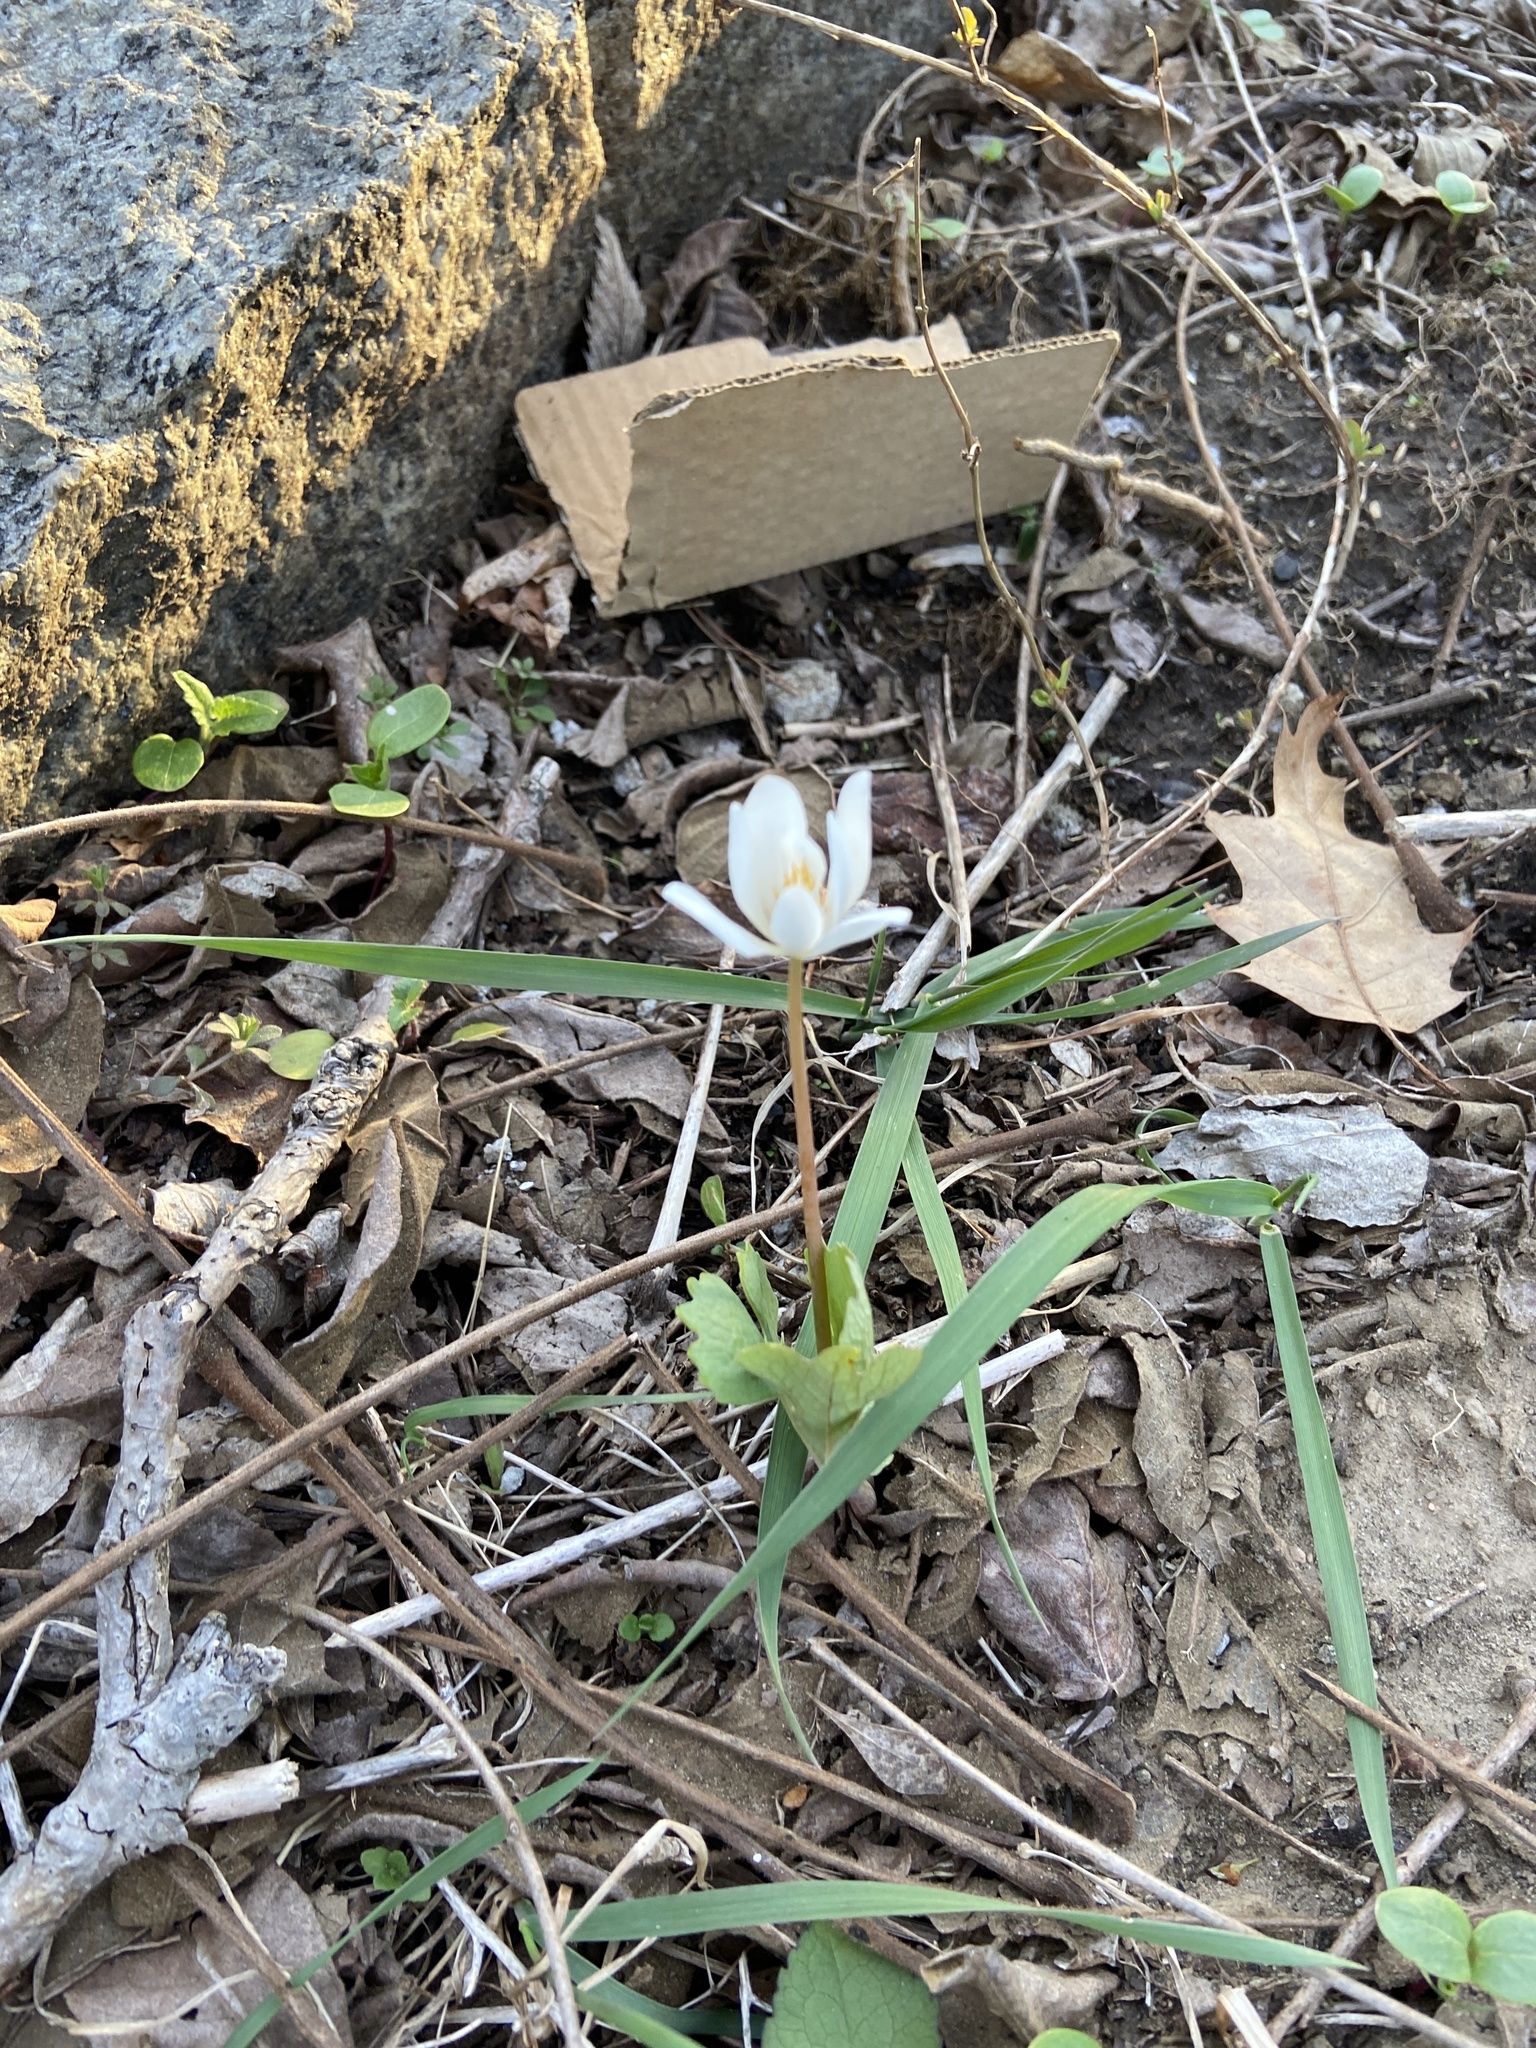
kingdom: Plantae
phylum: Tracheophyta
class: Magnoliopsida
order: Ranunculales
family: Papaveraceae
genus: Sanguinaria
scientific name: Sanguinaria canadensis
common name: Bloodroot
